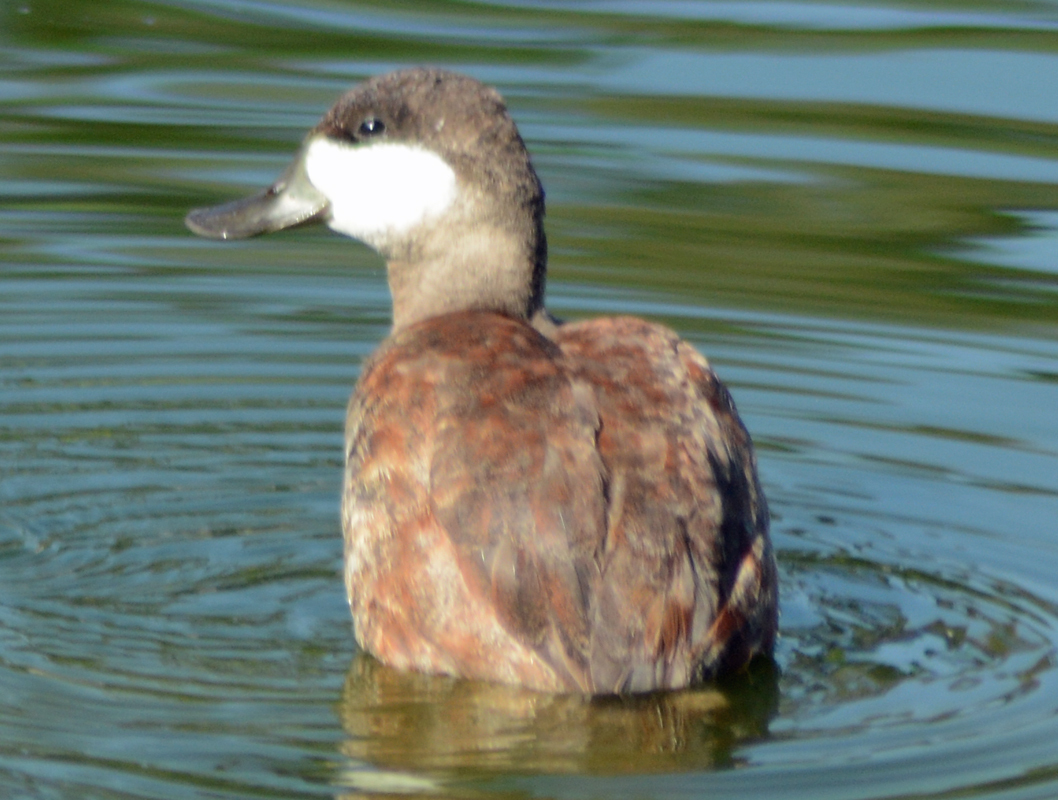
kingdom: Animalia
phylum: Chordata
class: Aves
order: Anseriformes
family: Anatidae
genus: Oxyura
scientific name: Oxyura jamaicensis
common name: Ruddy duck
